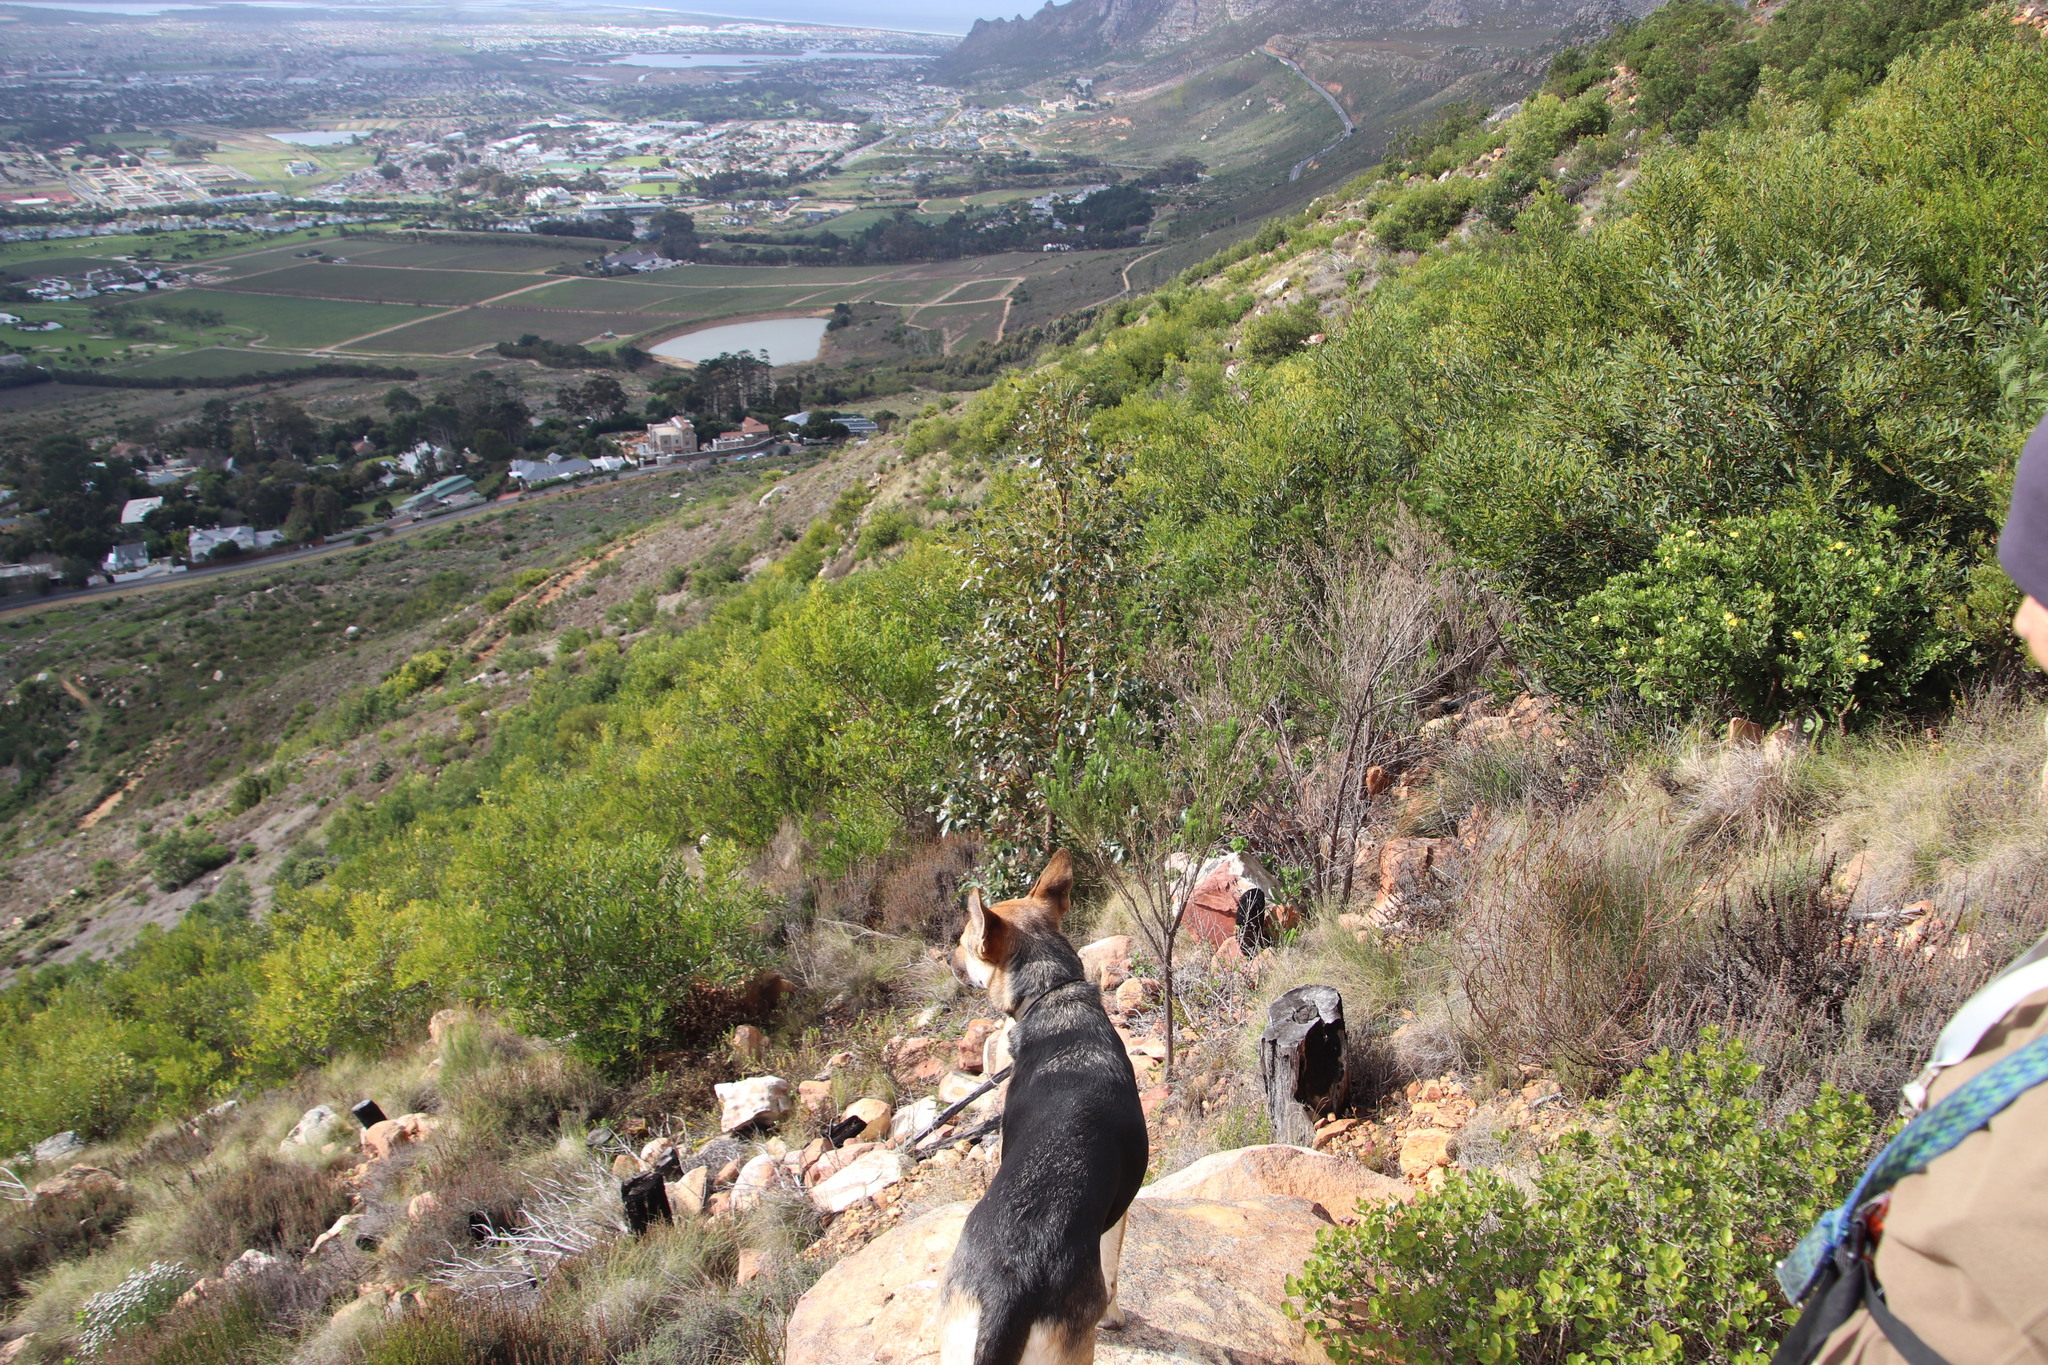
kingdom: Plantae
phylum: Tracheophyta
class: Magnoliopsida
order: Fabales
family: Fabaceae
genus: Acacia
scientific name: Acacia longifolia
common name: Sydney golden wattle
